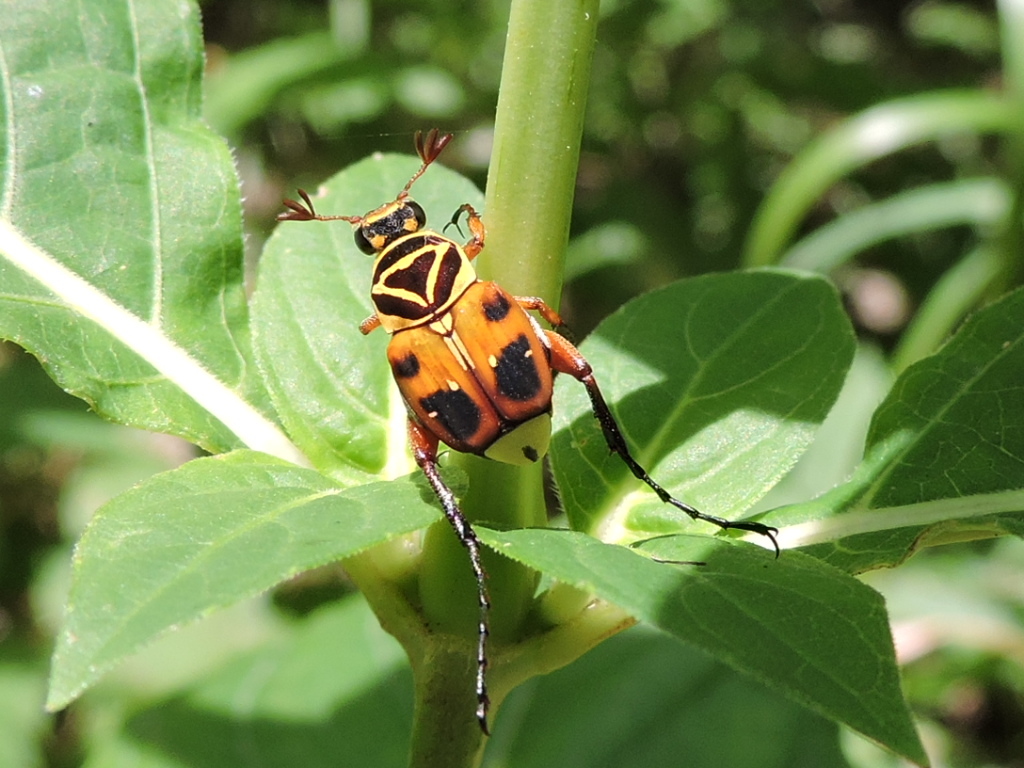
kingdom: Animalia
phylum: Arthropoda
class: Insecta
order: Coleoptera
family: Scarabaeidae
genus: Trigonopeltastes
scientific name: Trigonopeltastes delta
